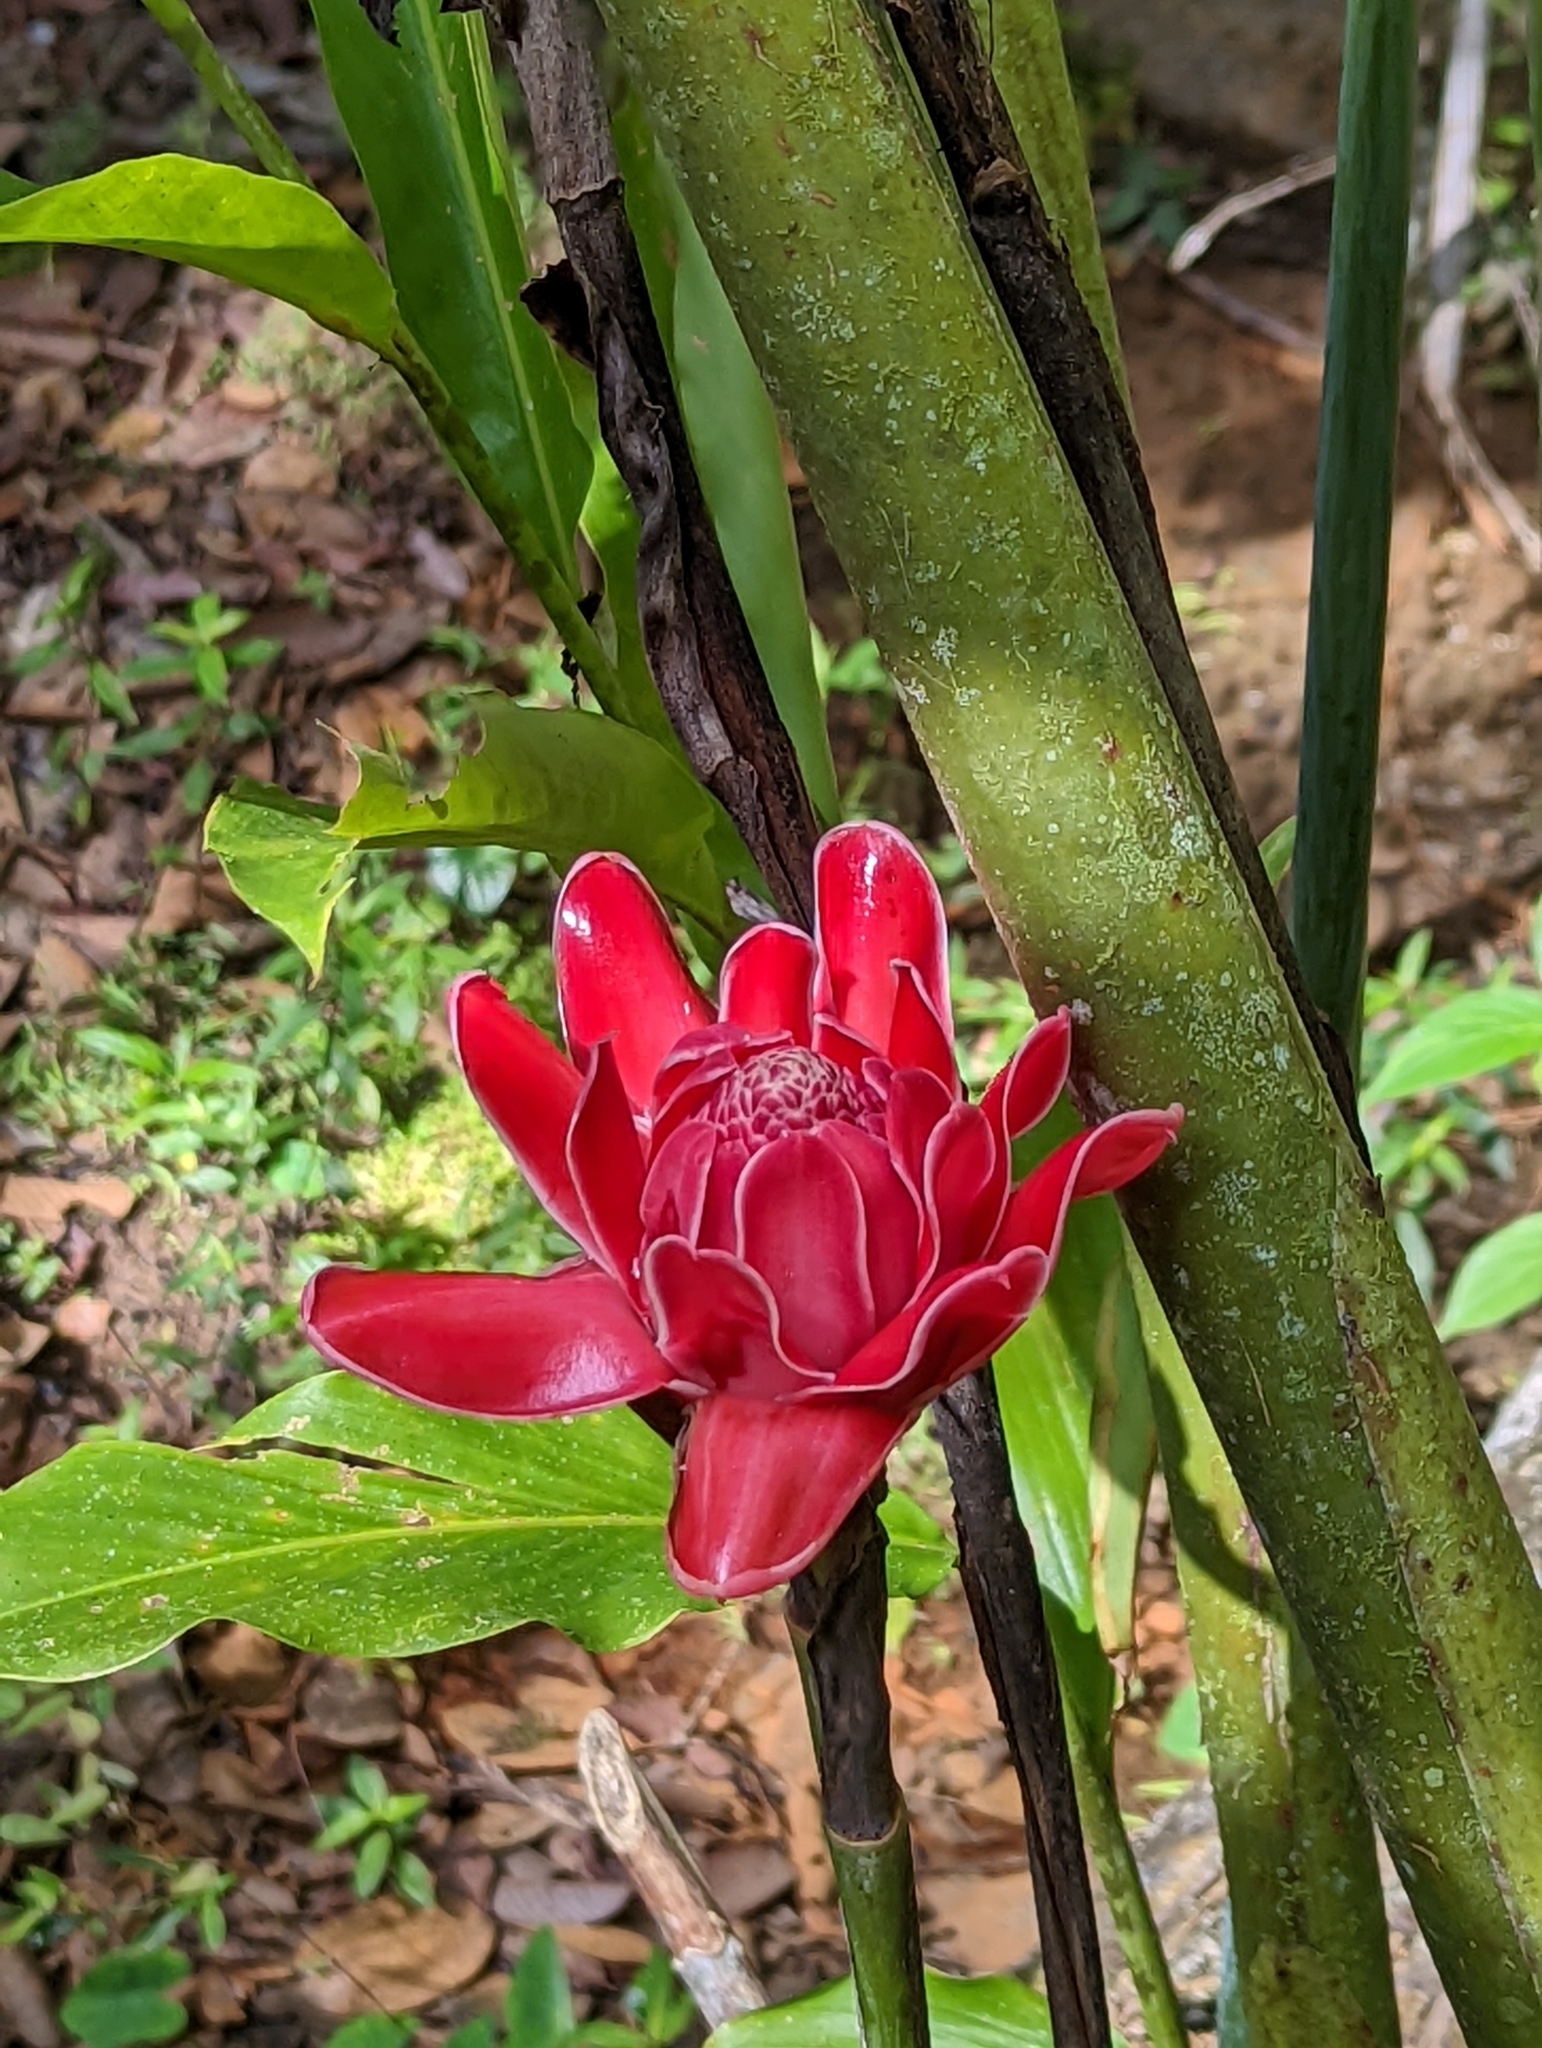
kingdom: Plantae
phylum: Tracheophyta
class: Liliopsida
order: Zingiberales
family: Zingiberaceae
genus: Etlingera
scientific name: Etlingera elatior
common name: Philippine waxflower
